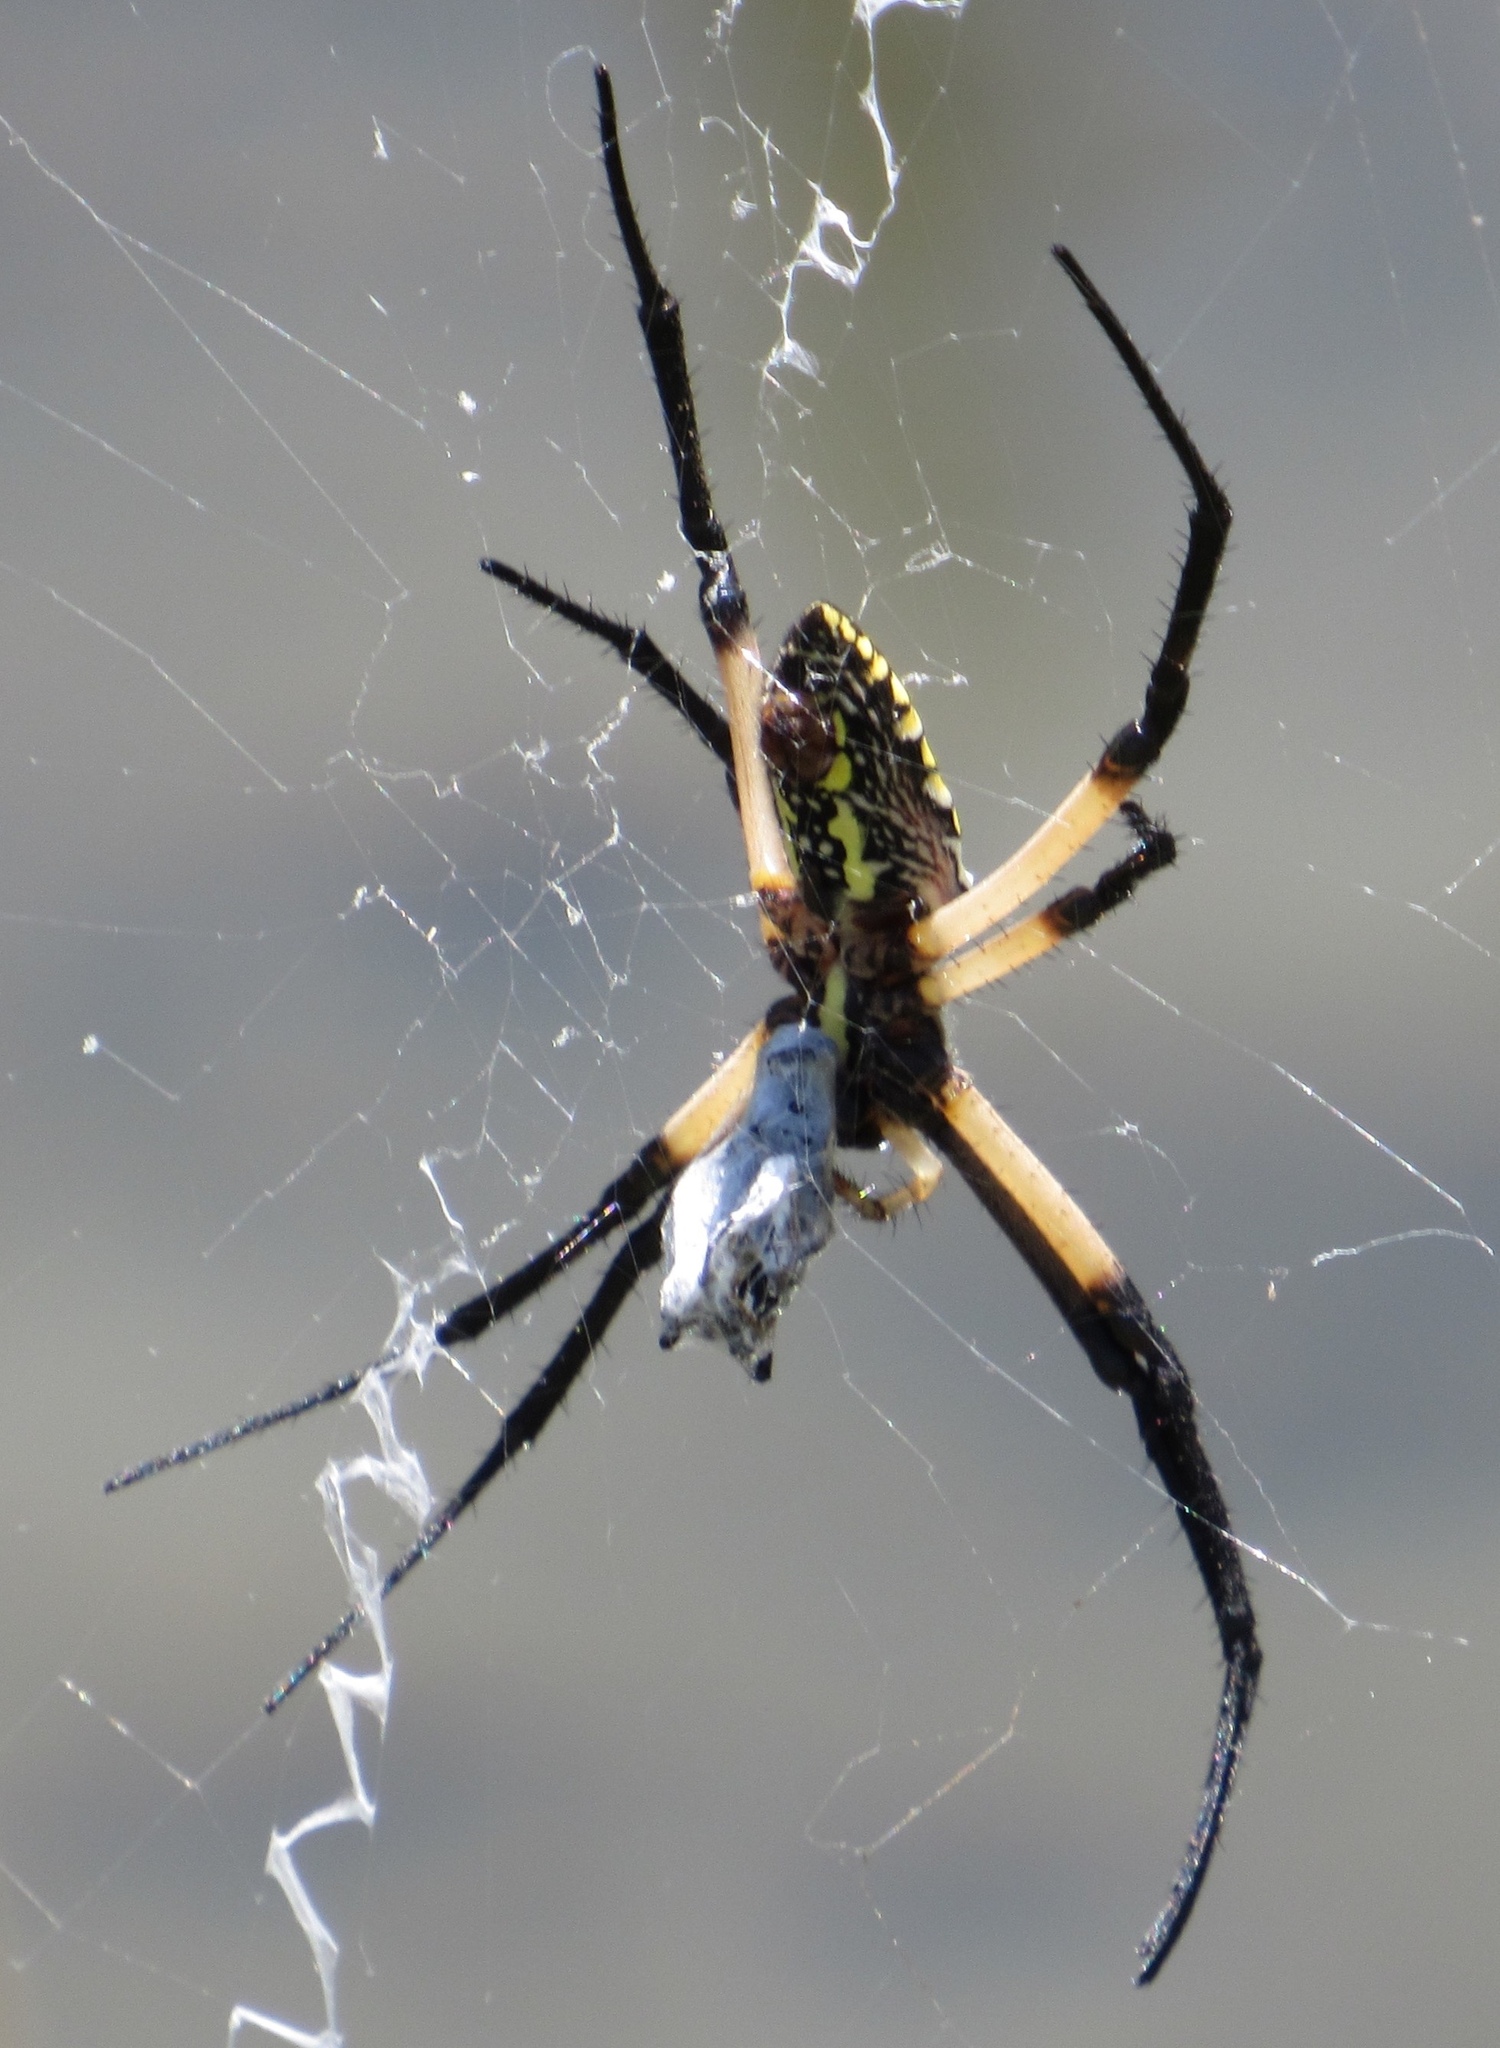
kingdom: Animalia
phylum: Arthropoda
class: Arachnida
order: Araneae
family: Araneidae
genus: Argiope
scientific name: Argiope aurantia
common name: Orb weavers
